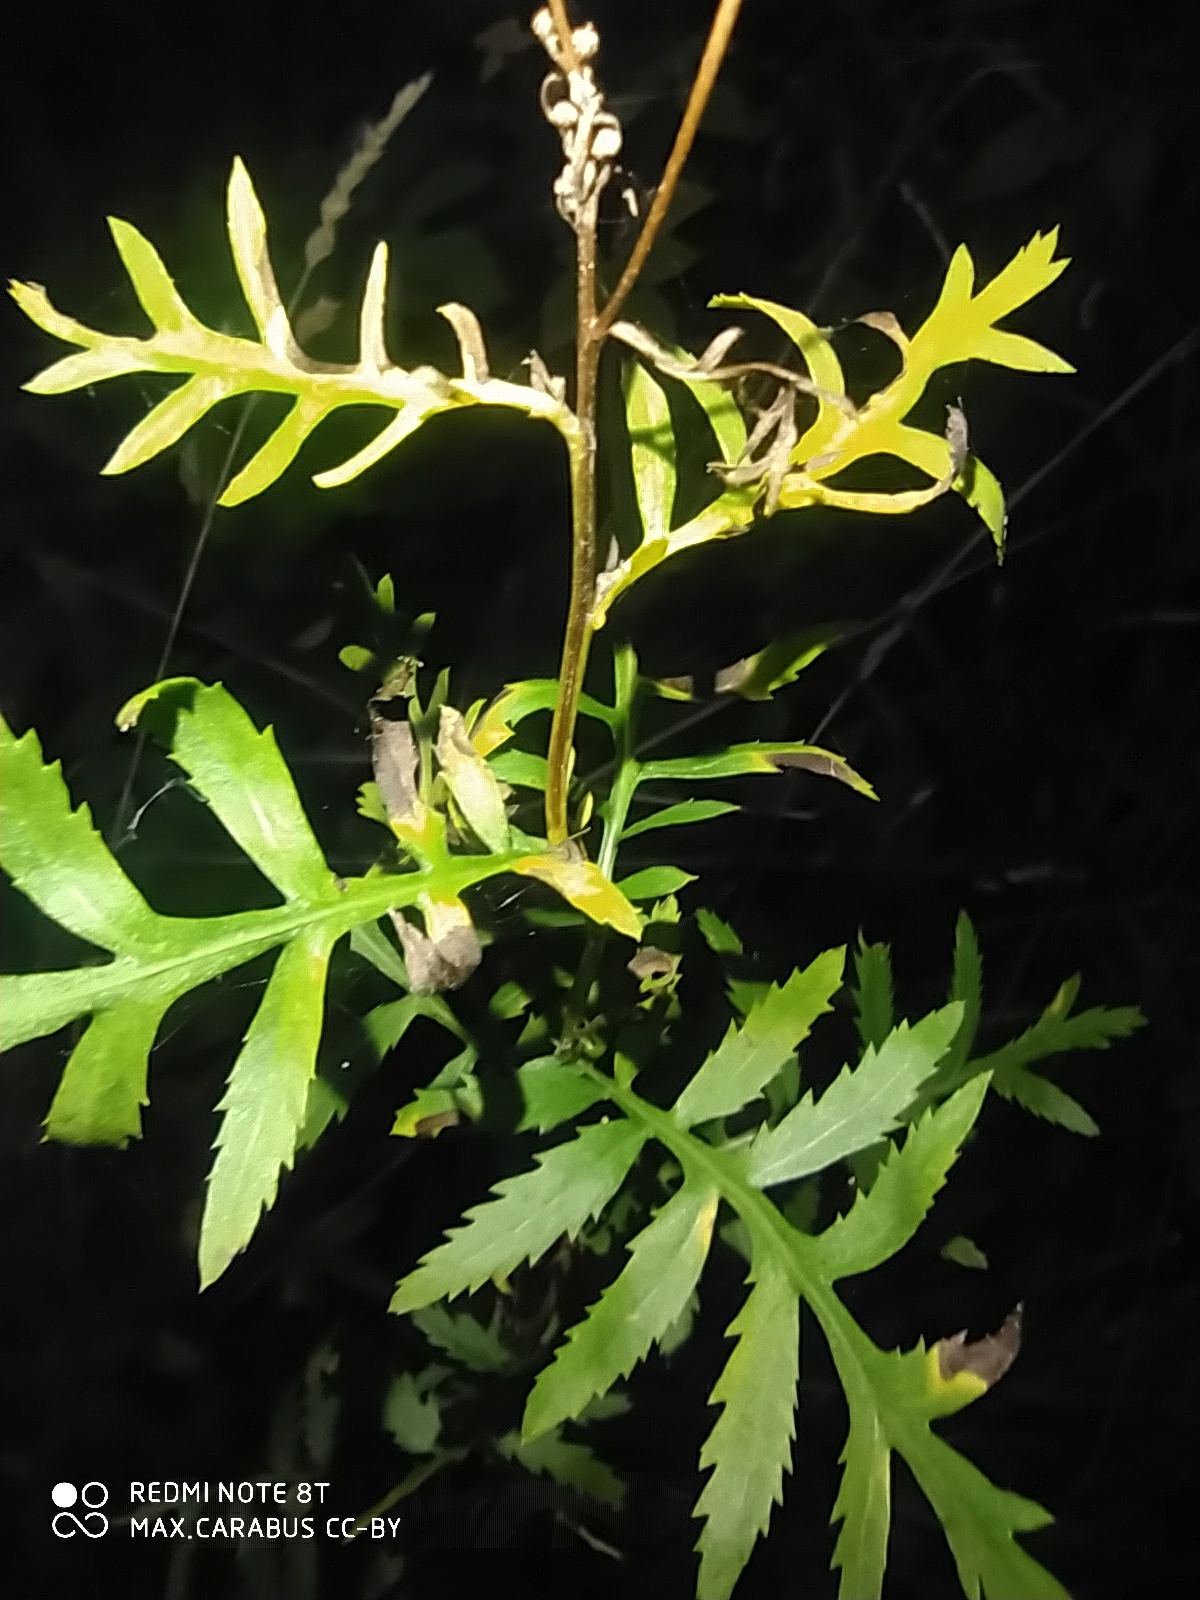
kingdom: Plantae
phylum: Tracheophyta
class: Magnoliopsida
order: Asterales
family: Asteraceae
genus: Tanacetum
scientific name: Tanacetum vulgare
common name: Common tansy
